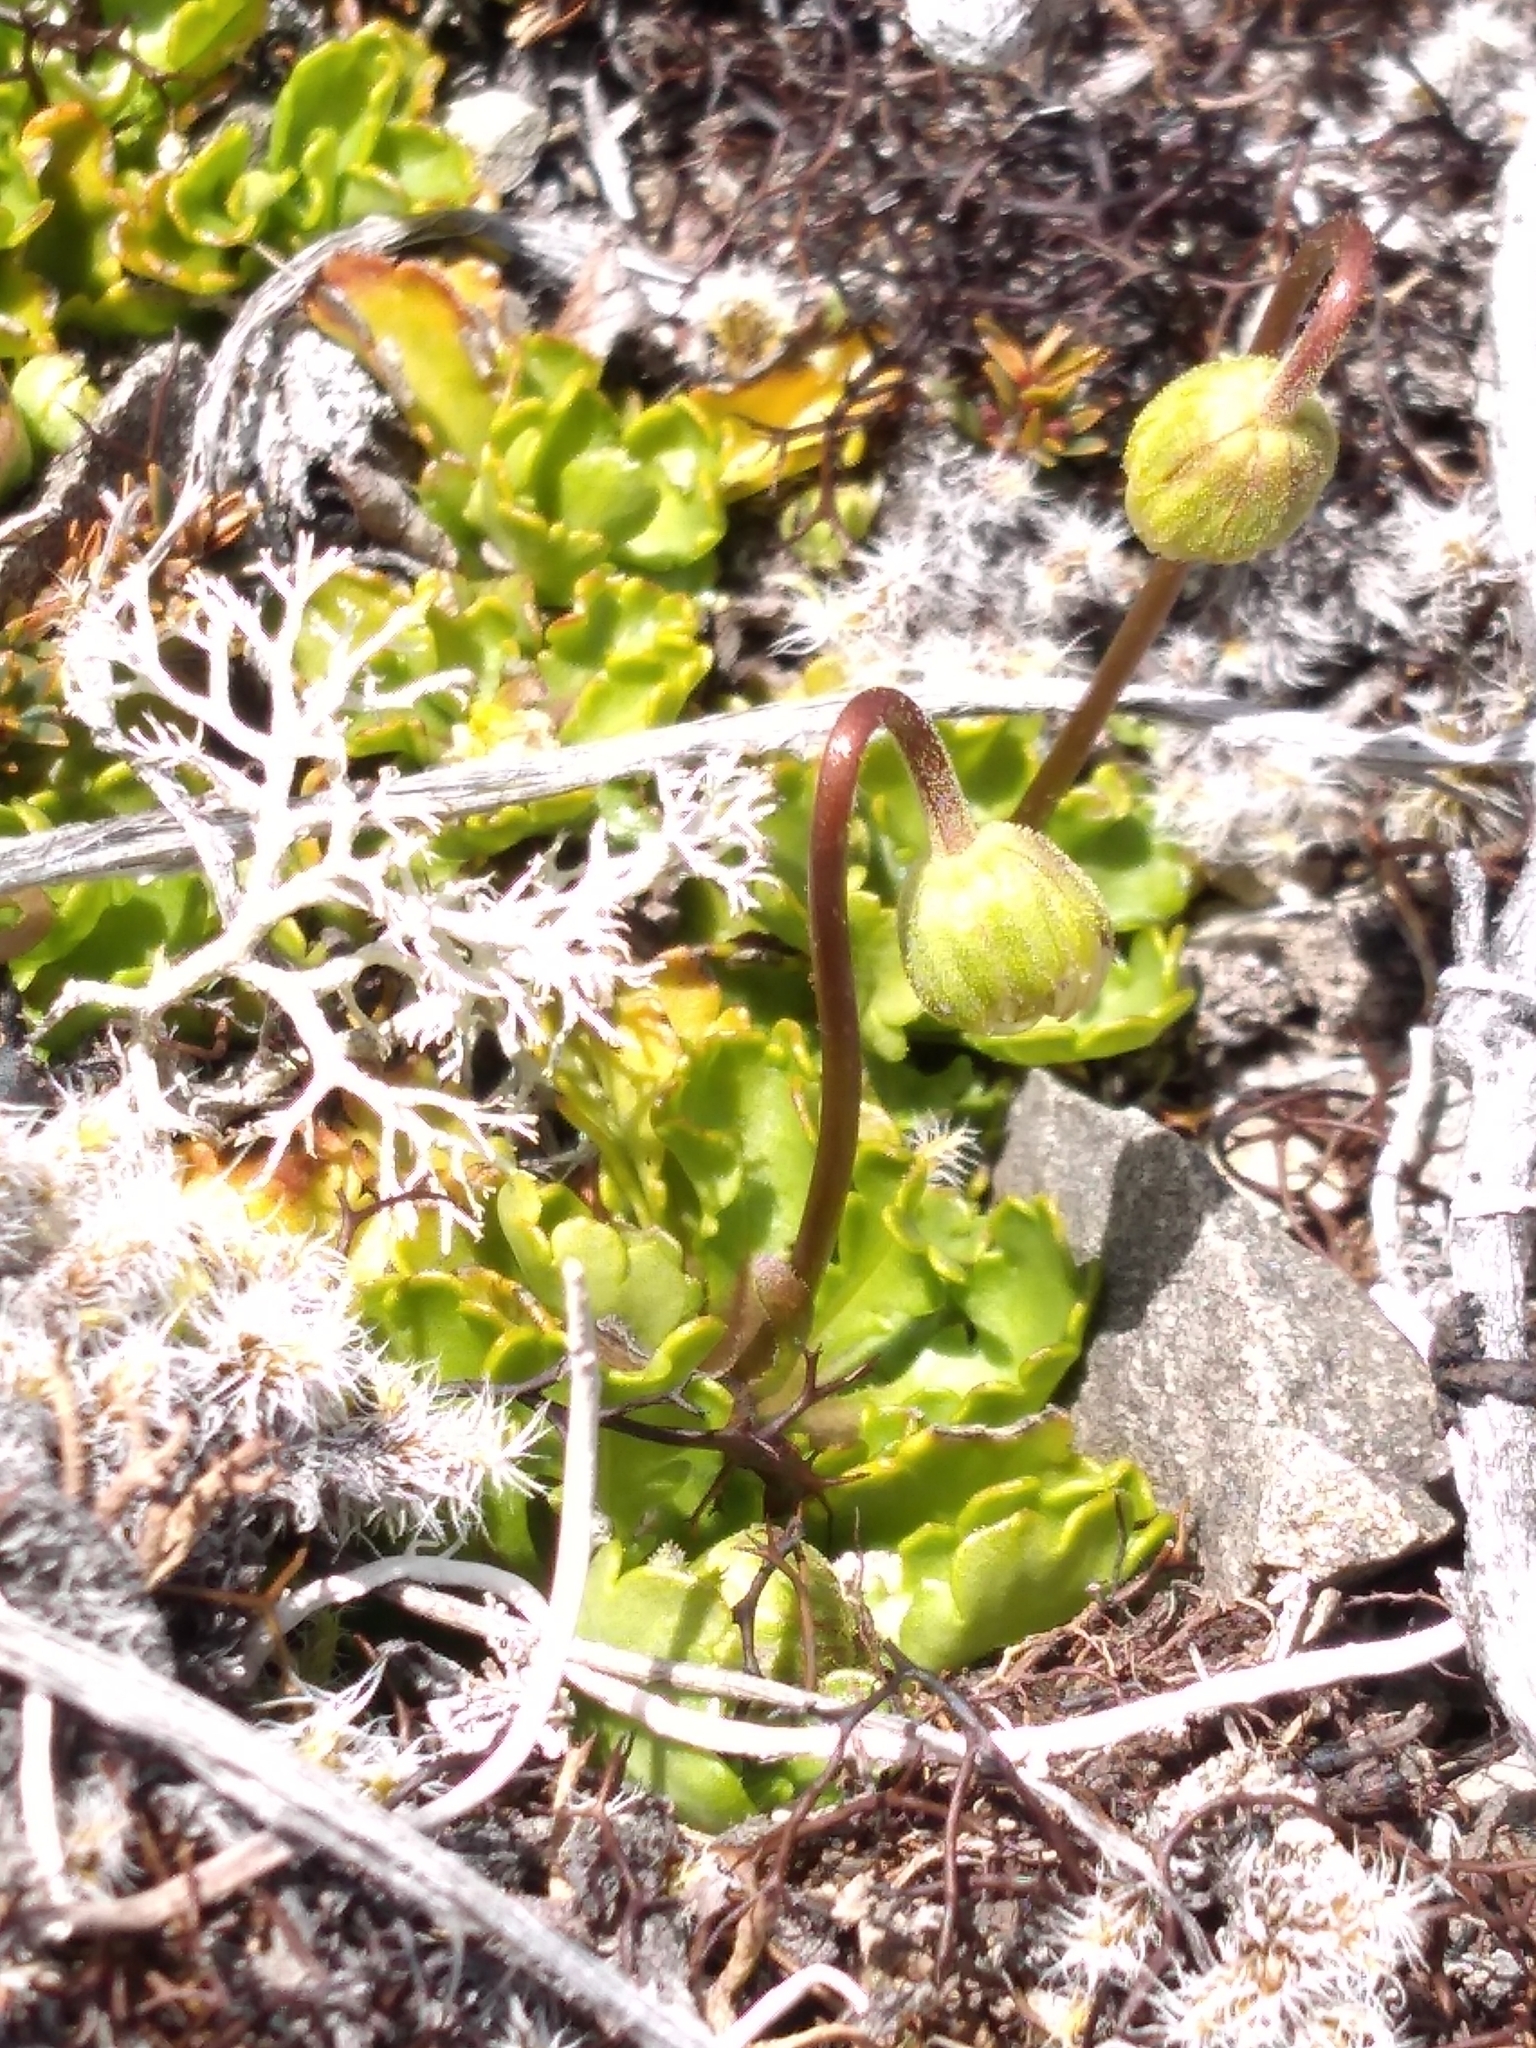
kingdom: Plantae
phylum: Tracheophyta
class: Magnoliopsida
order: Asterales
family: Asteraceae
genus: Brachyscome
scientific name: Brachyscome sinclairii
